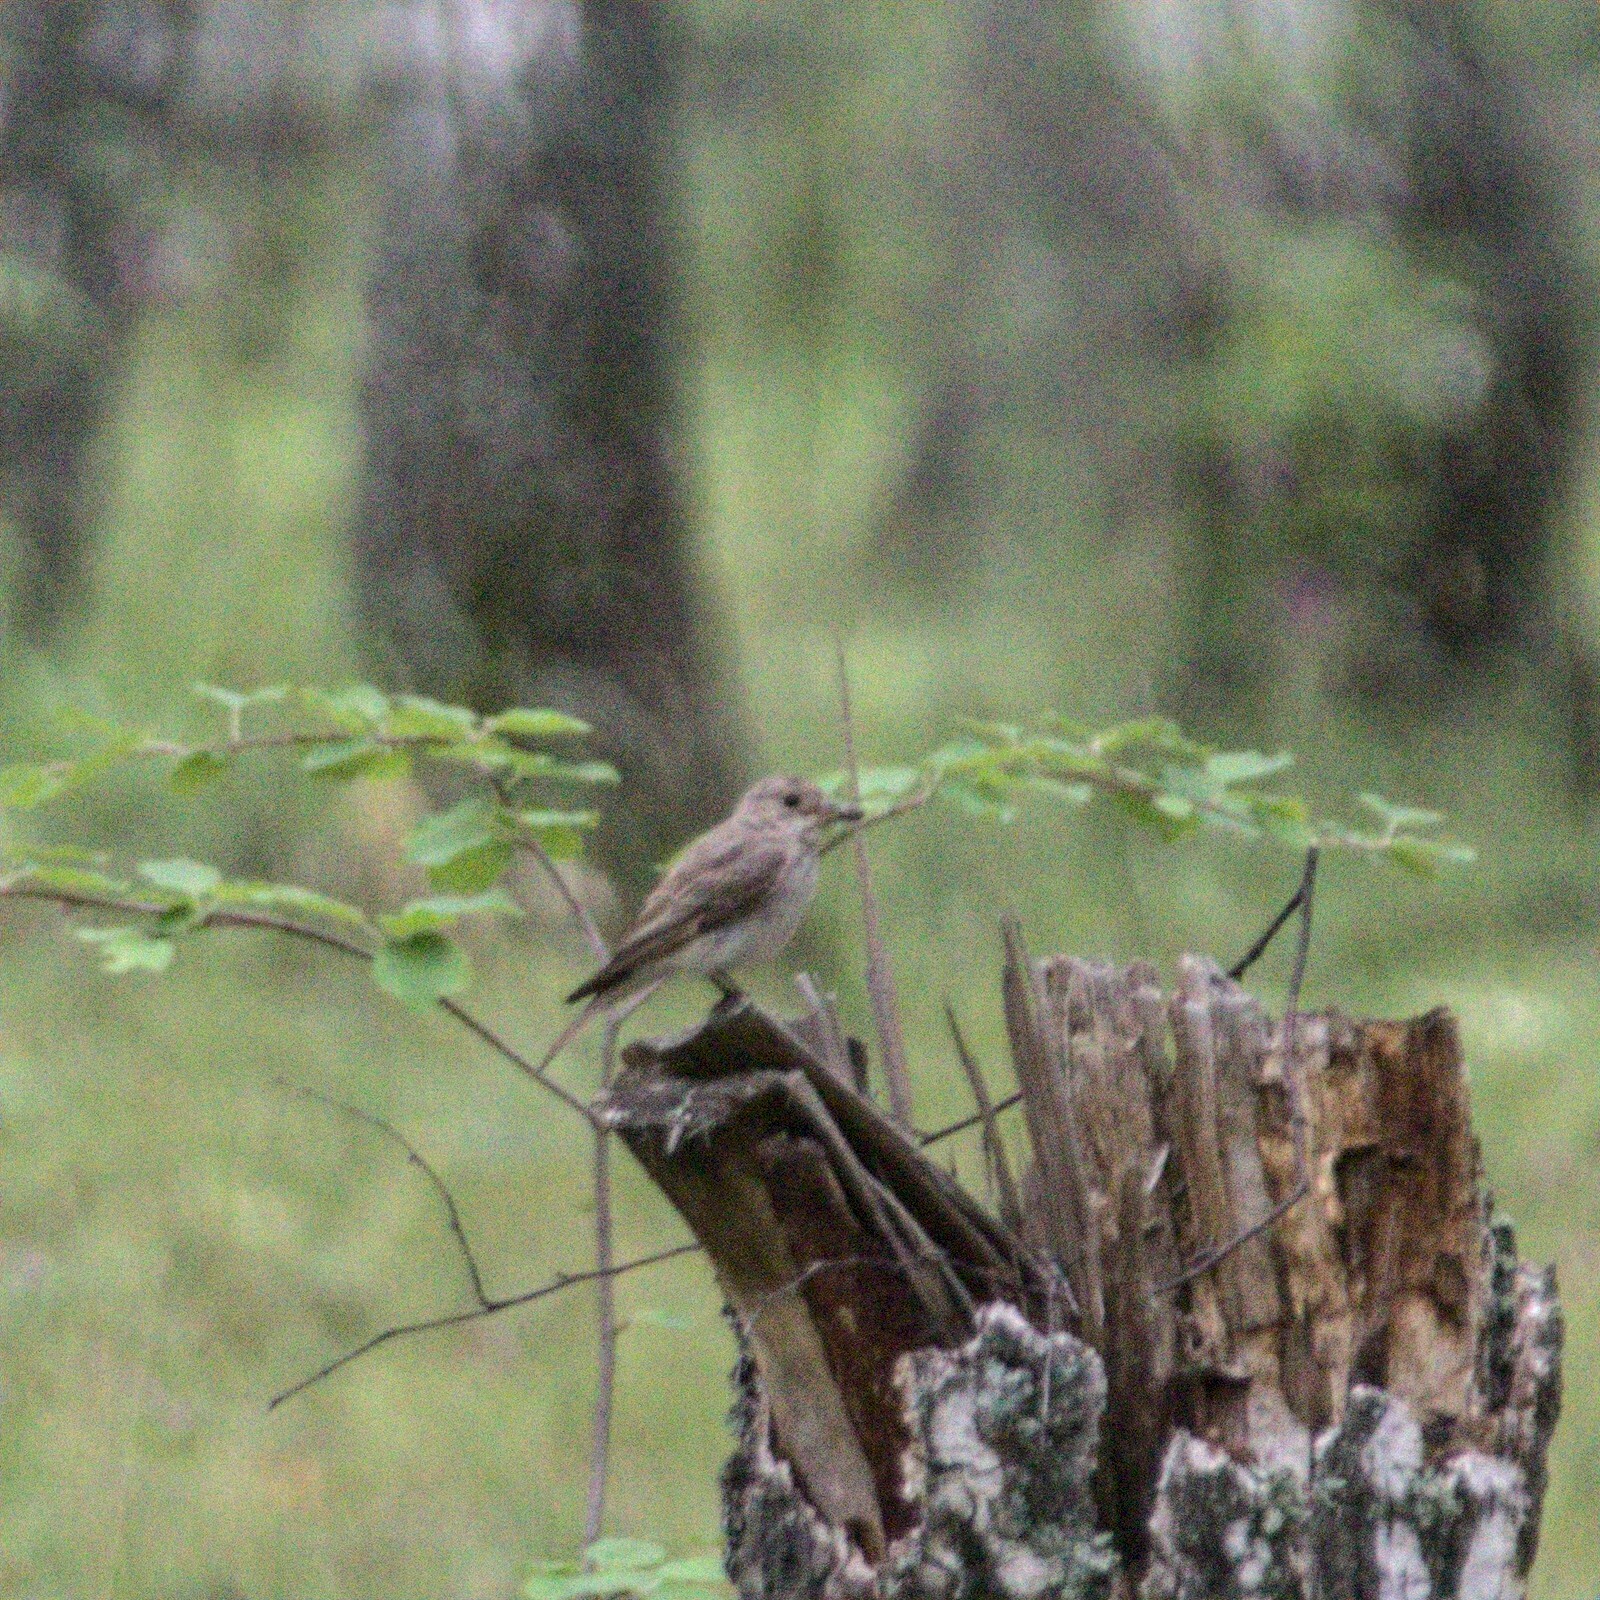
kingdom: Animalia
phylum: Chordata
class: Aves
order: Passeriformes
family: Muscicapidae
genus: Muscicapa
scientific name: Muscicapa striata
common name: Spotted flycatcher
